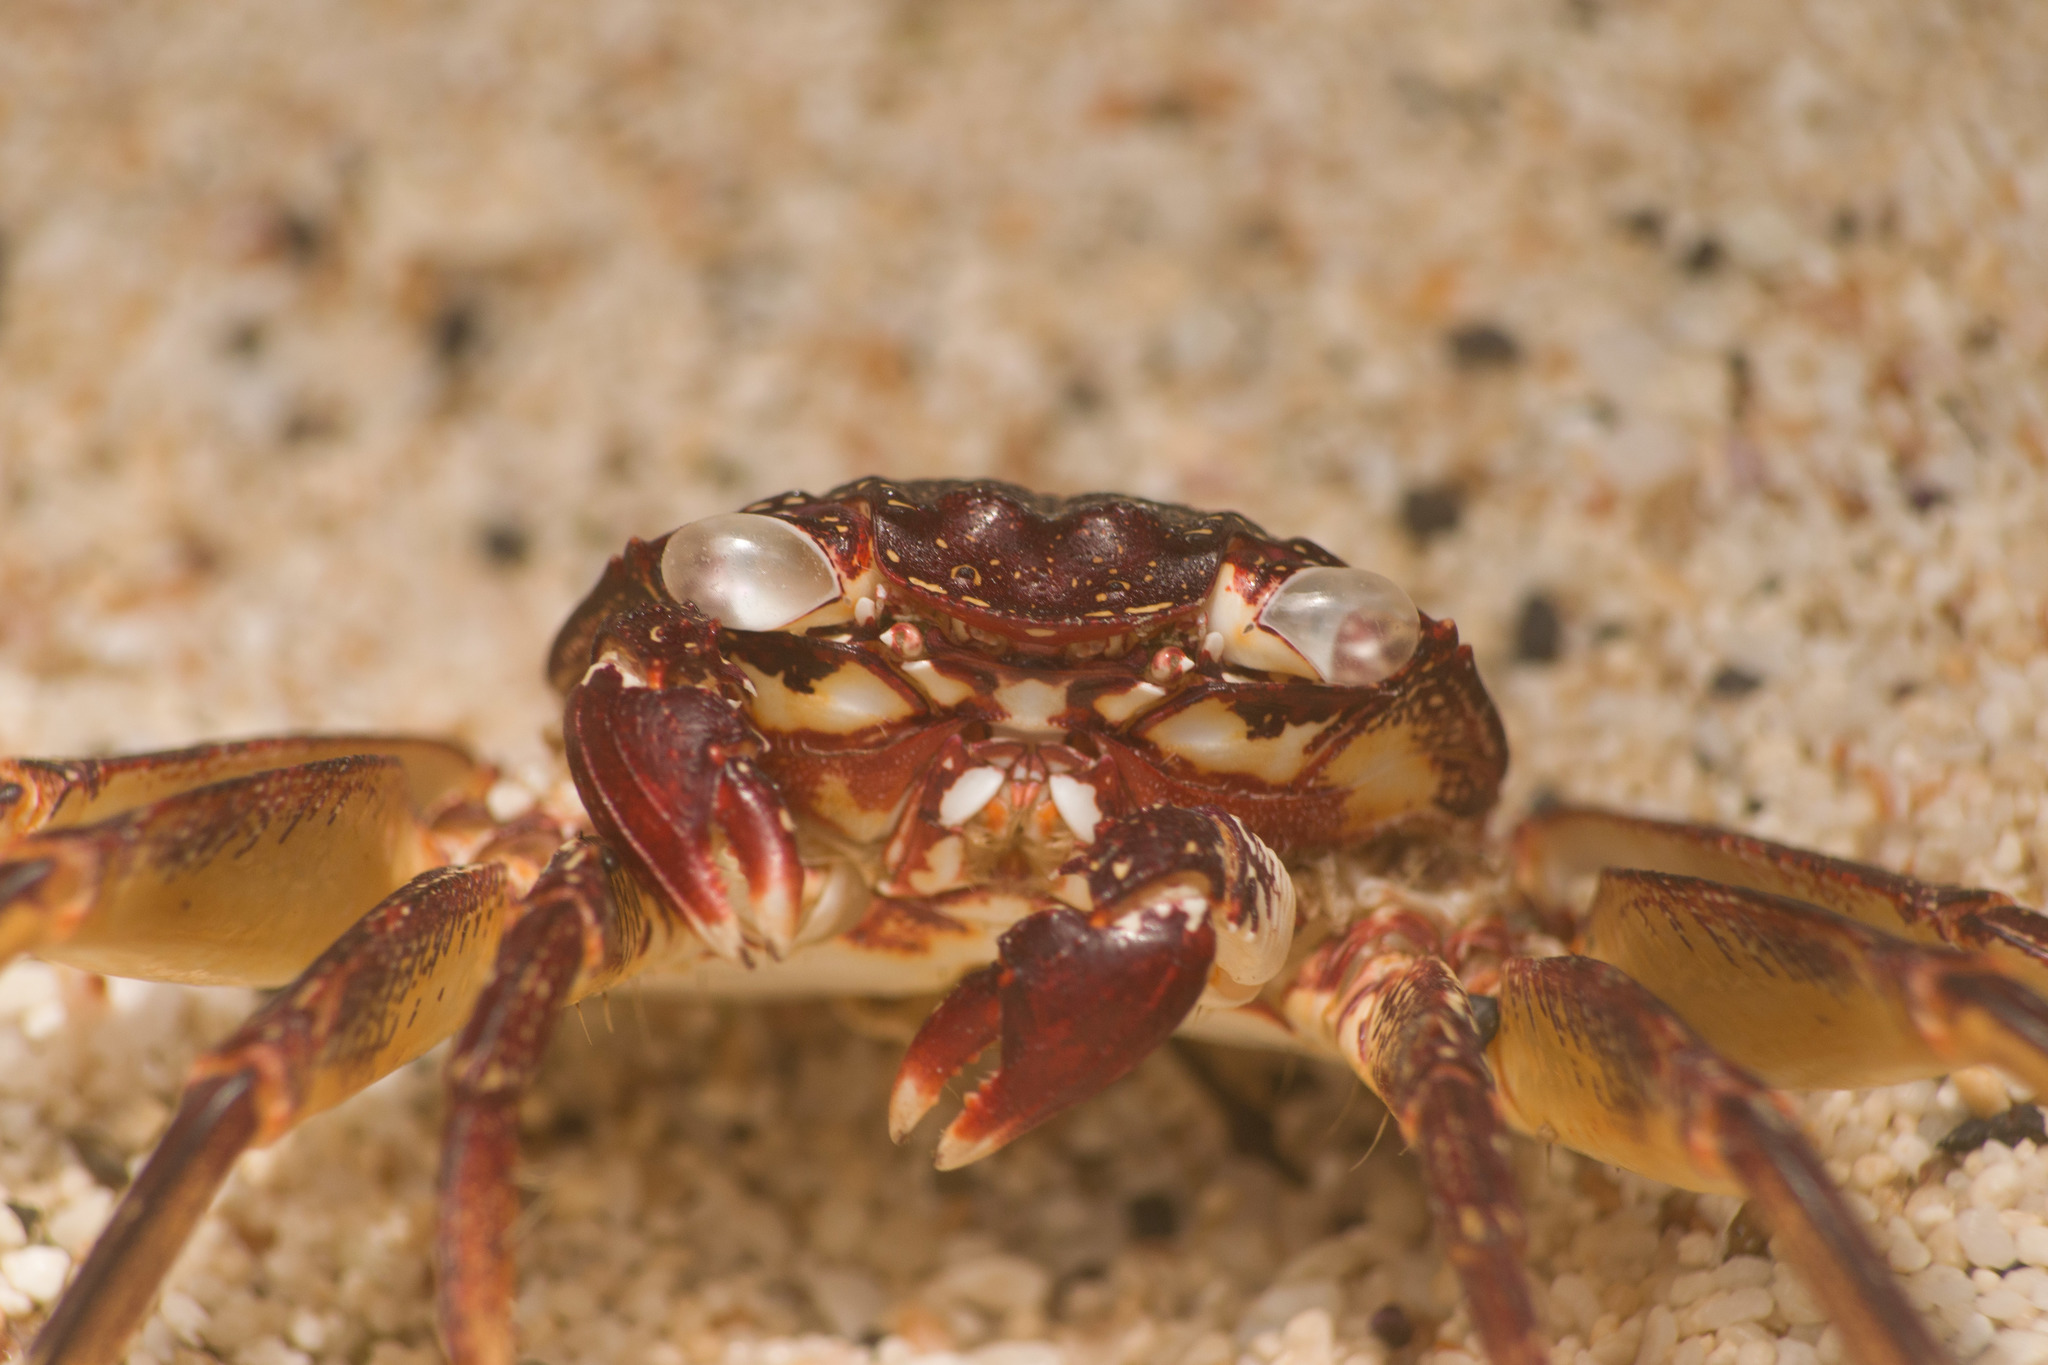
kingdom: Animalia
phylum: Arthropoda
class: Malacostraca
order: Decapoda
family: Grapsidae
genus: Grapsus
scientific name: Grapsus tenuicrustatus
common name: Natal lightfoot crab
